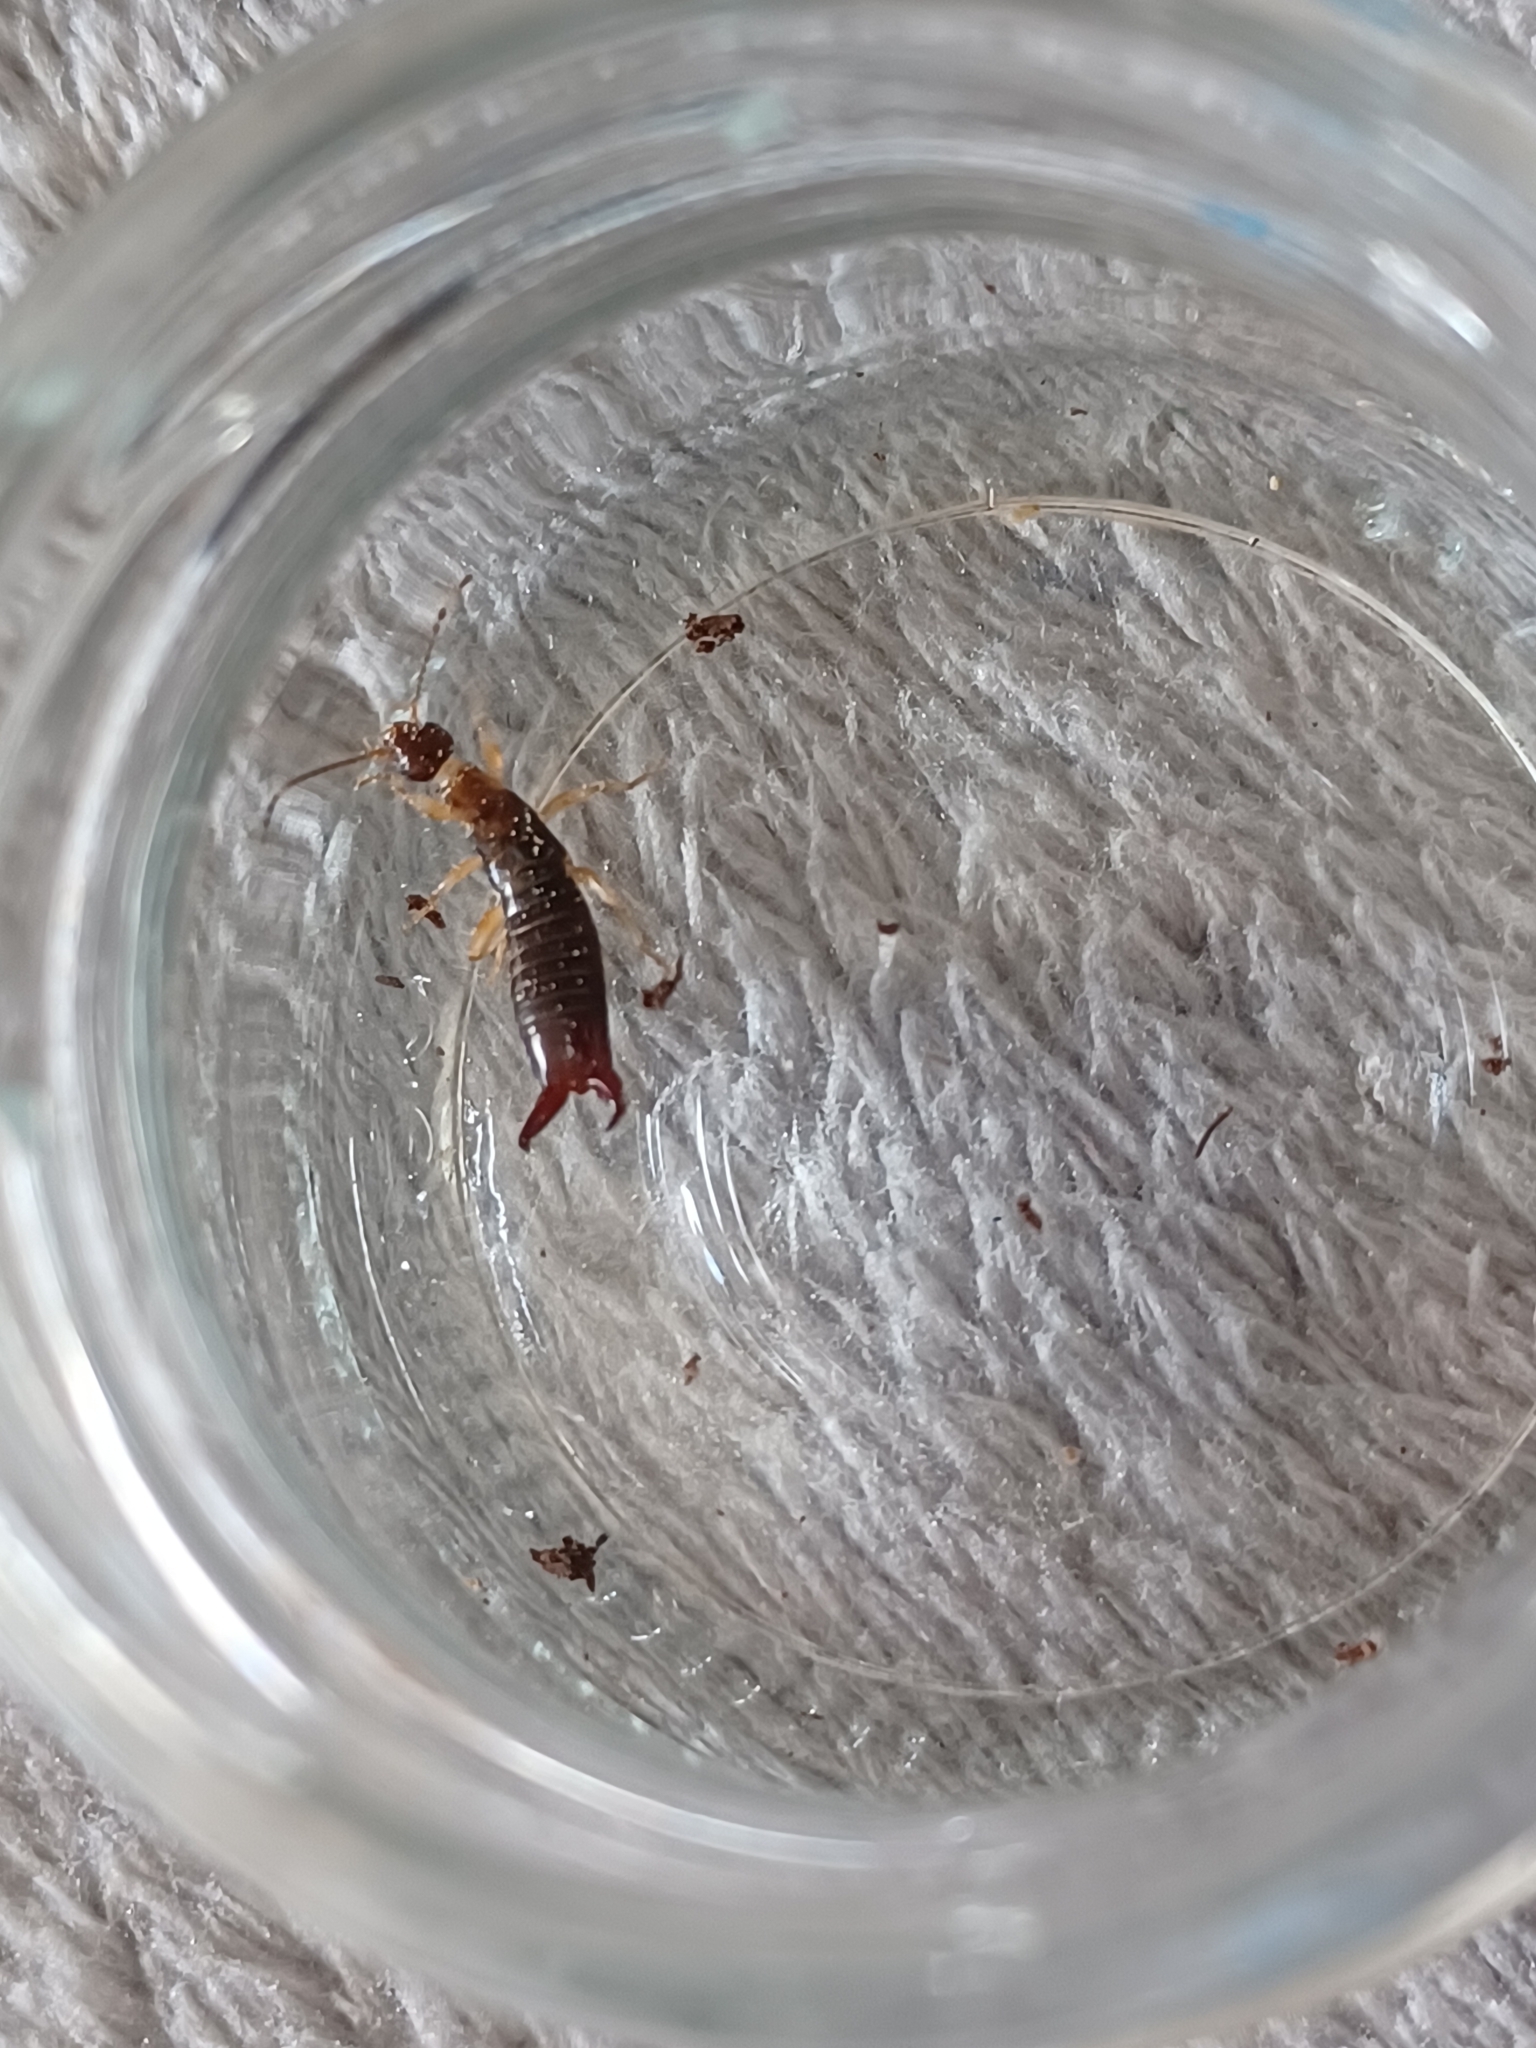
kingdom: Animalia
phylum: Arthropoda
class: Insecta
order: Dermaptera
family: Anisolabididae
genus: Euborellia
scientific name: Euborellia annulipes
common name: Ringlegged earwig
